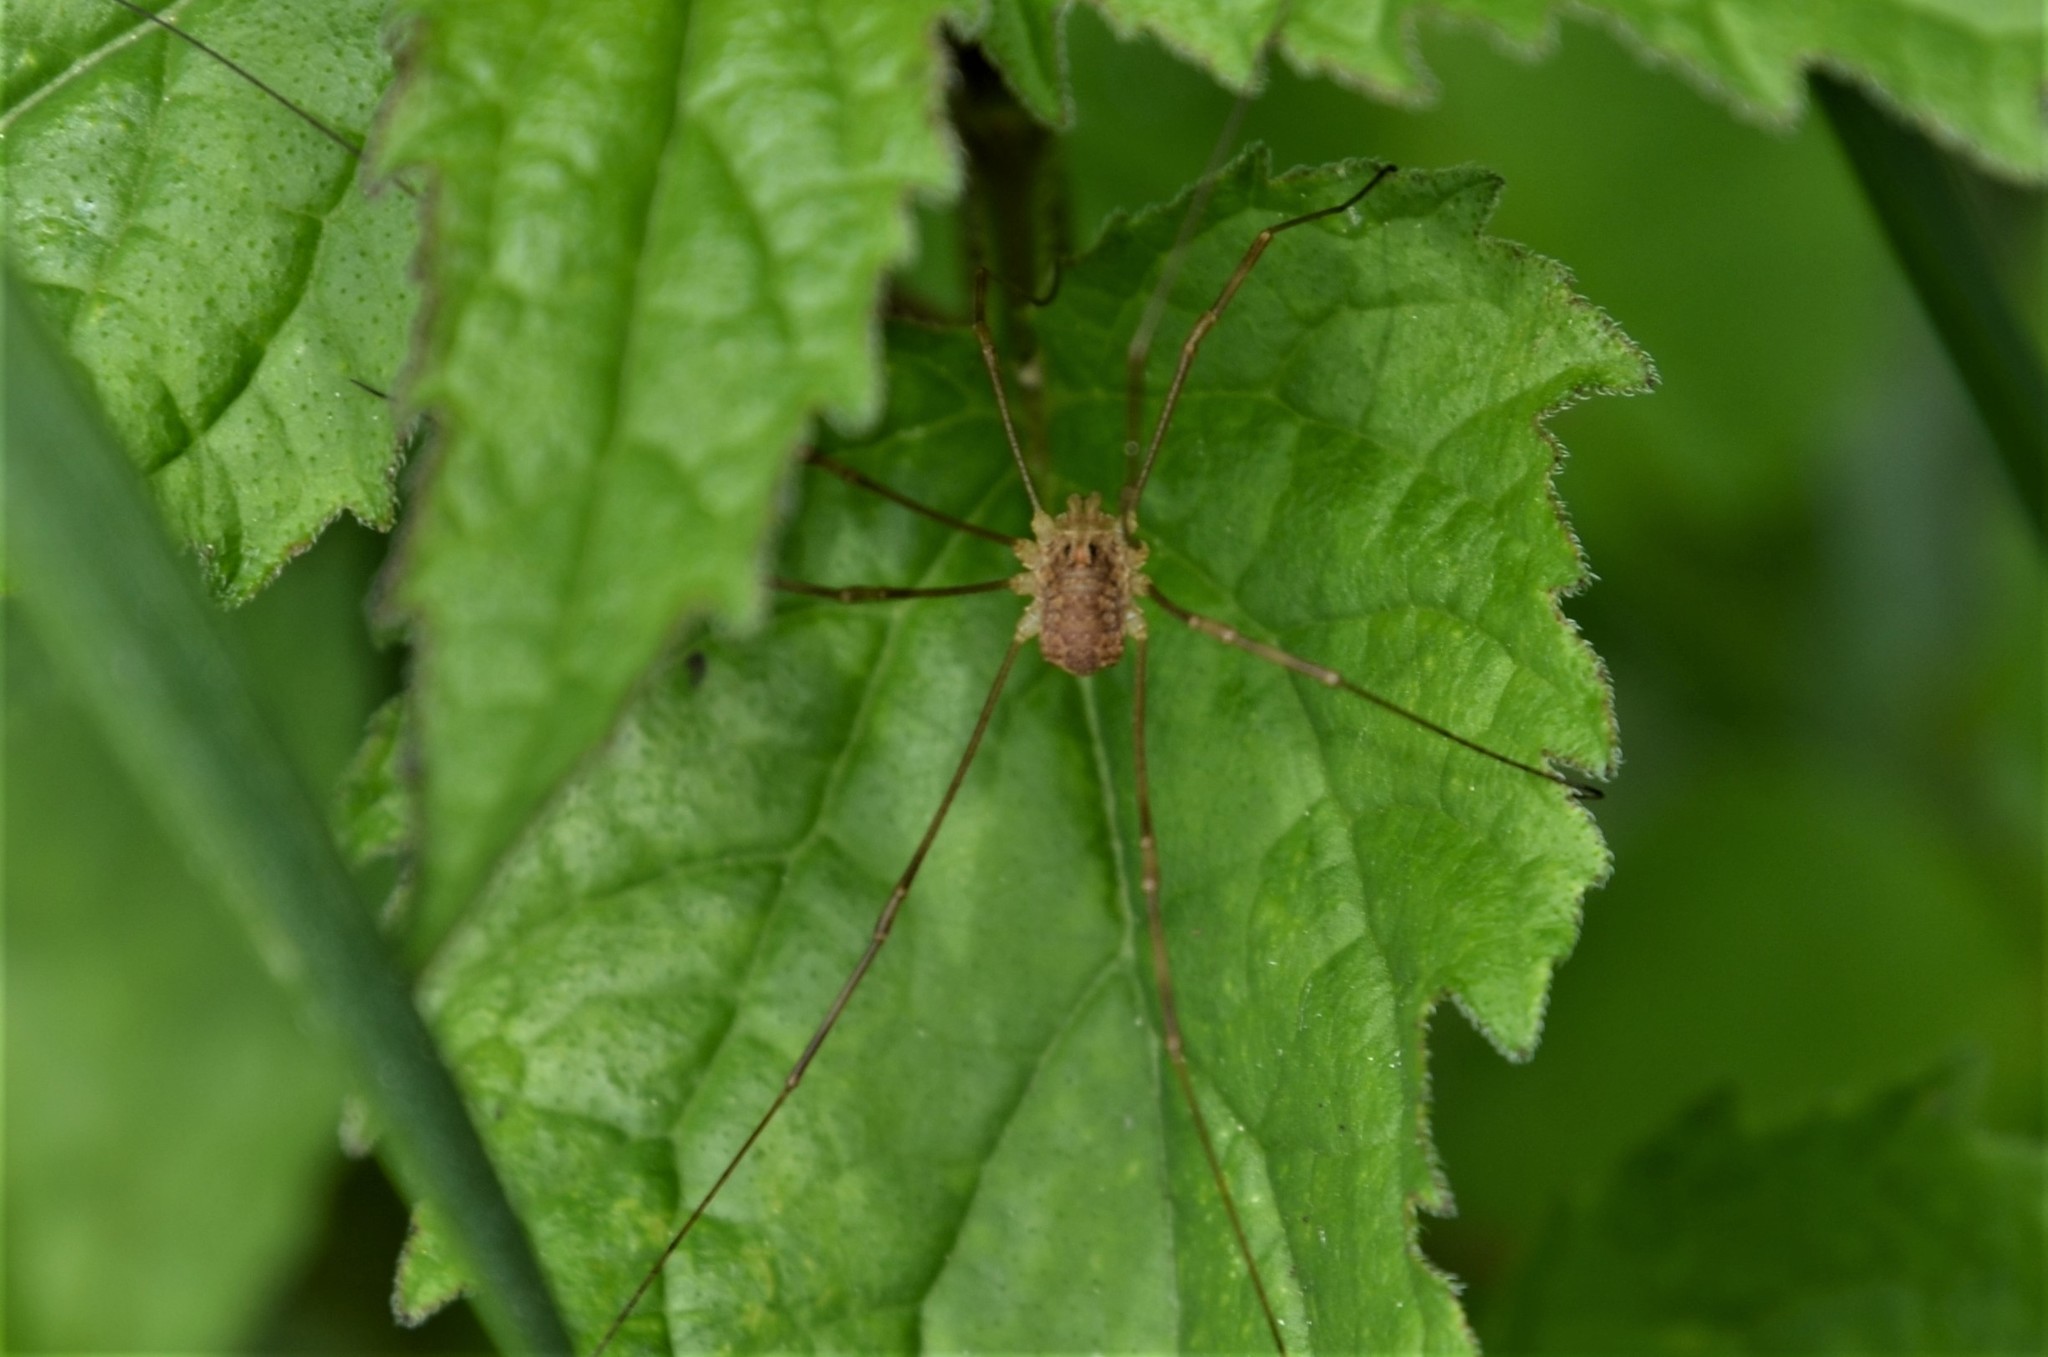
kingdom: Animalia
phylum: Arthropoda
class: Arachnida
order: Opiliones
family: Phalangiidae
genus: Rilaena
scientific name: Rilaena triangularis
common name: Spring harvestman
